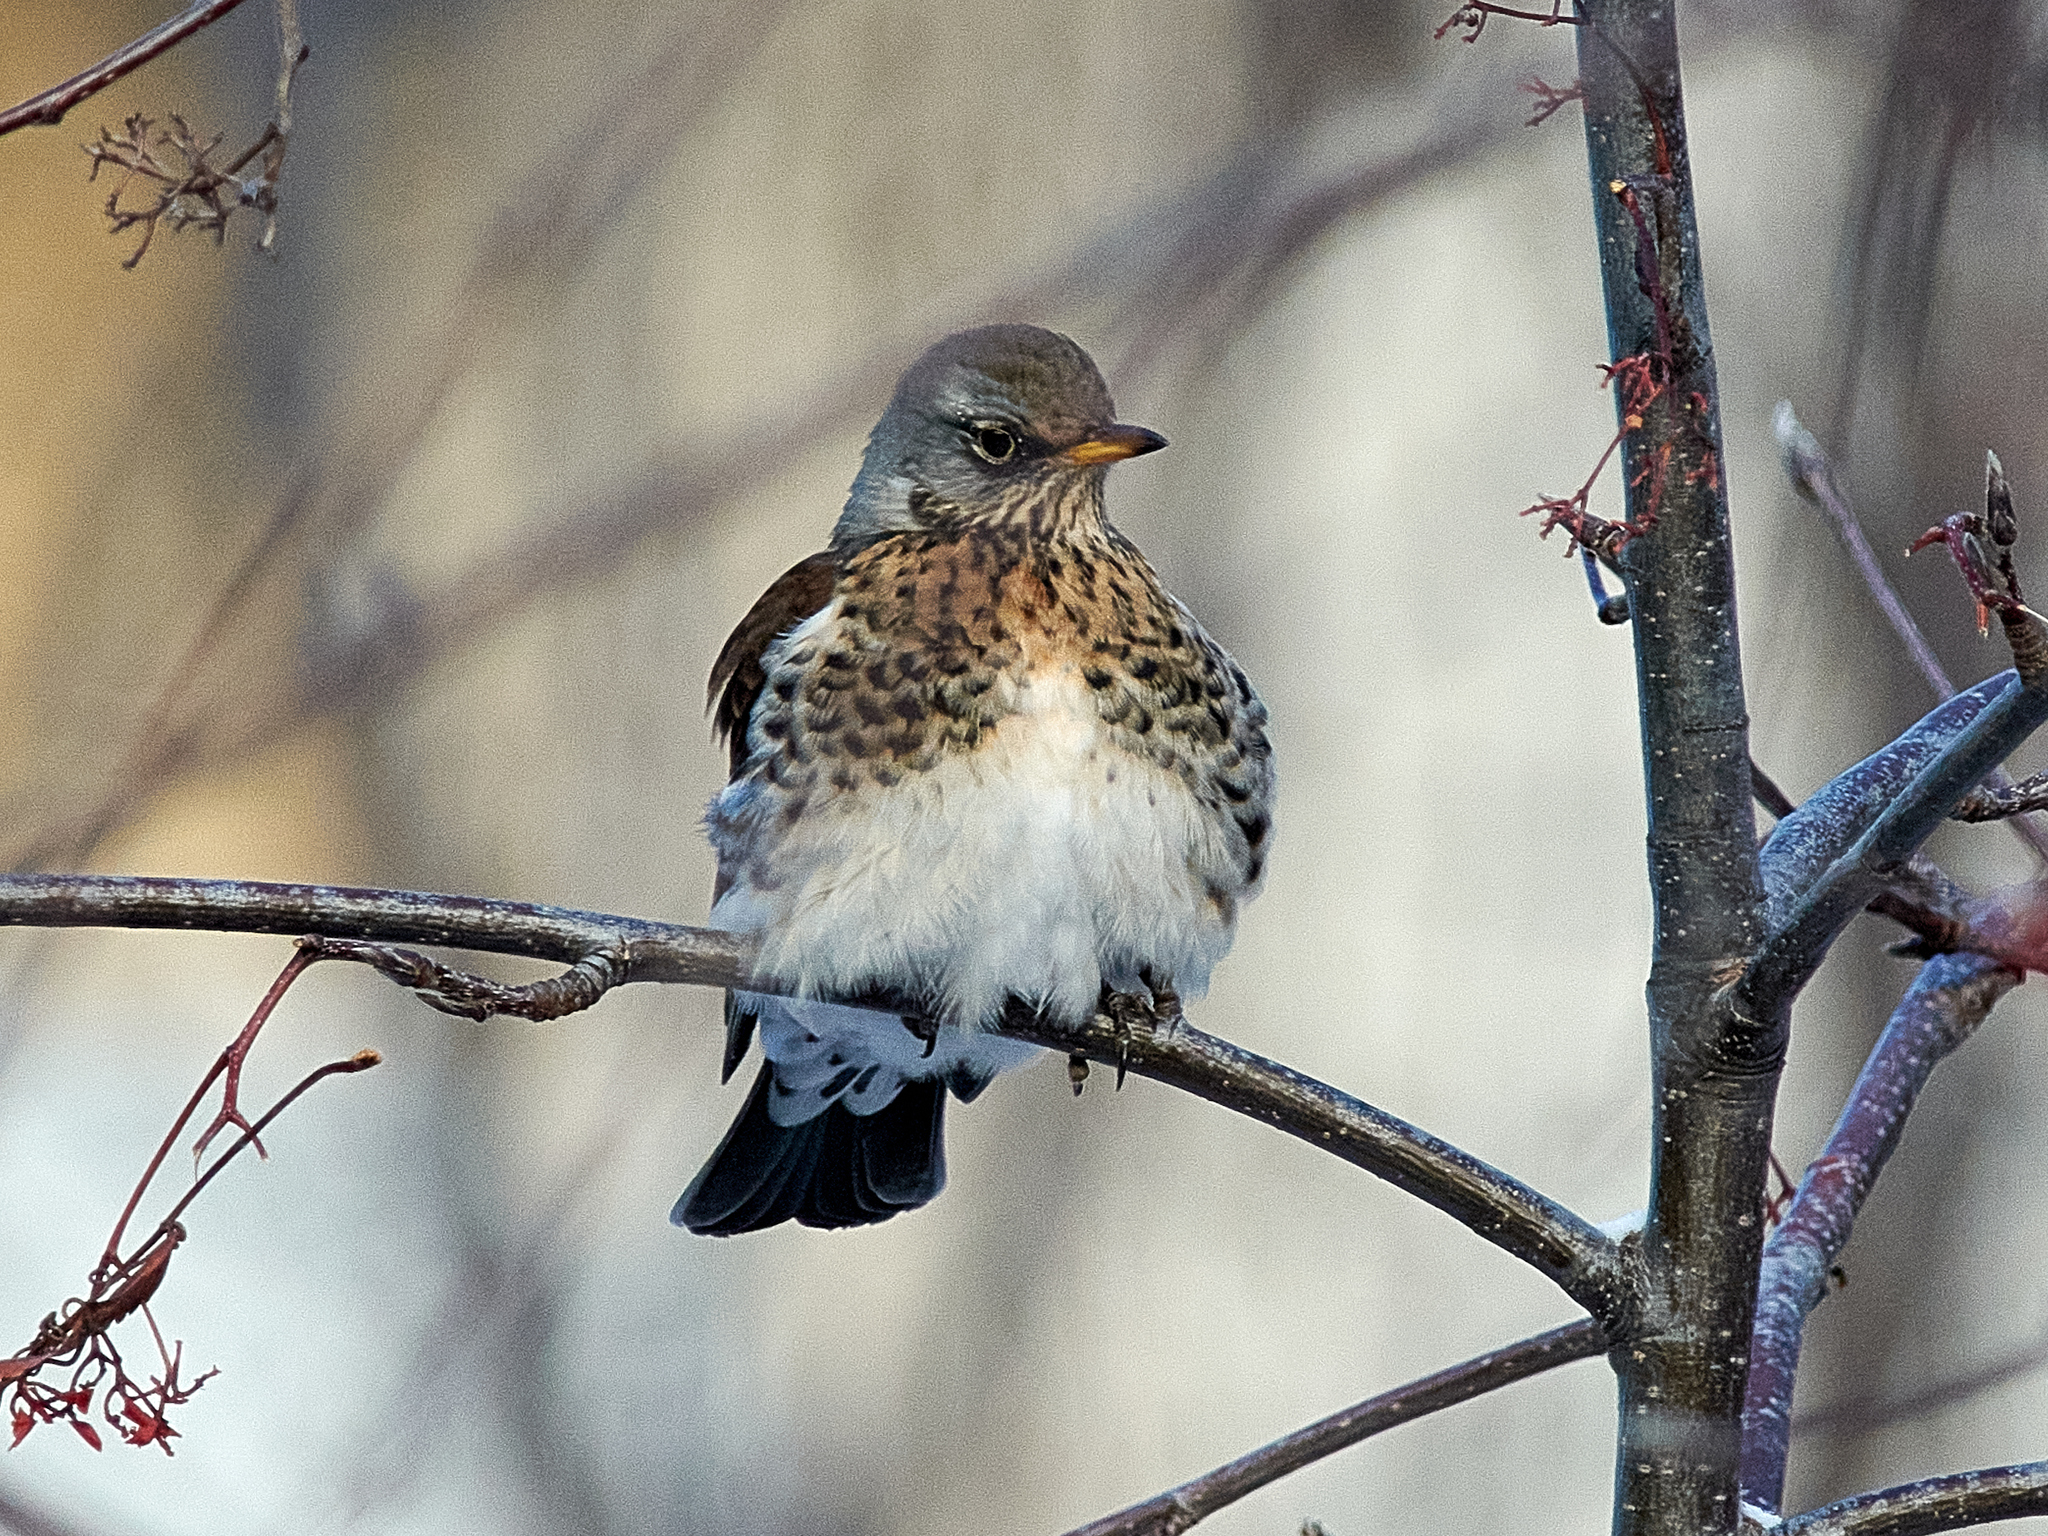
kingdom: Animalia
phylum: Chordata
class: Aves
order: Passeriformes
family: Turdidae
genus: Turdus
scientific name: Turdus pilaris
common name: Fieldfare
